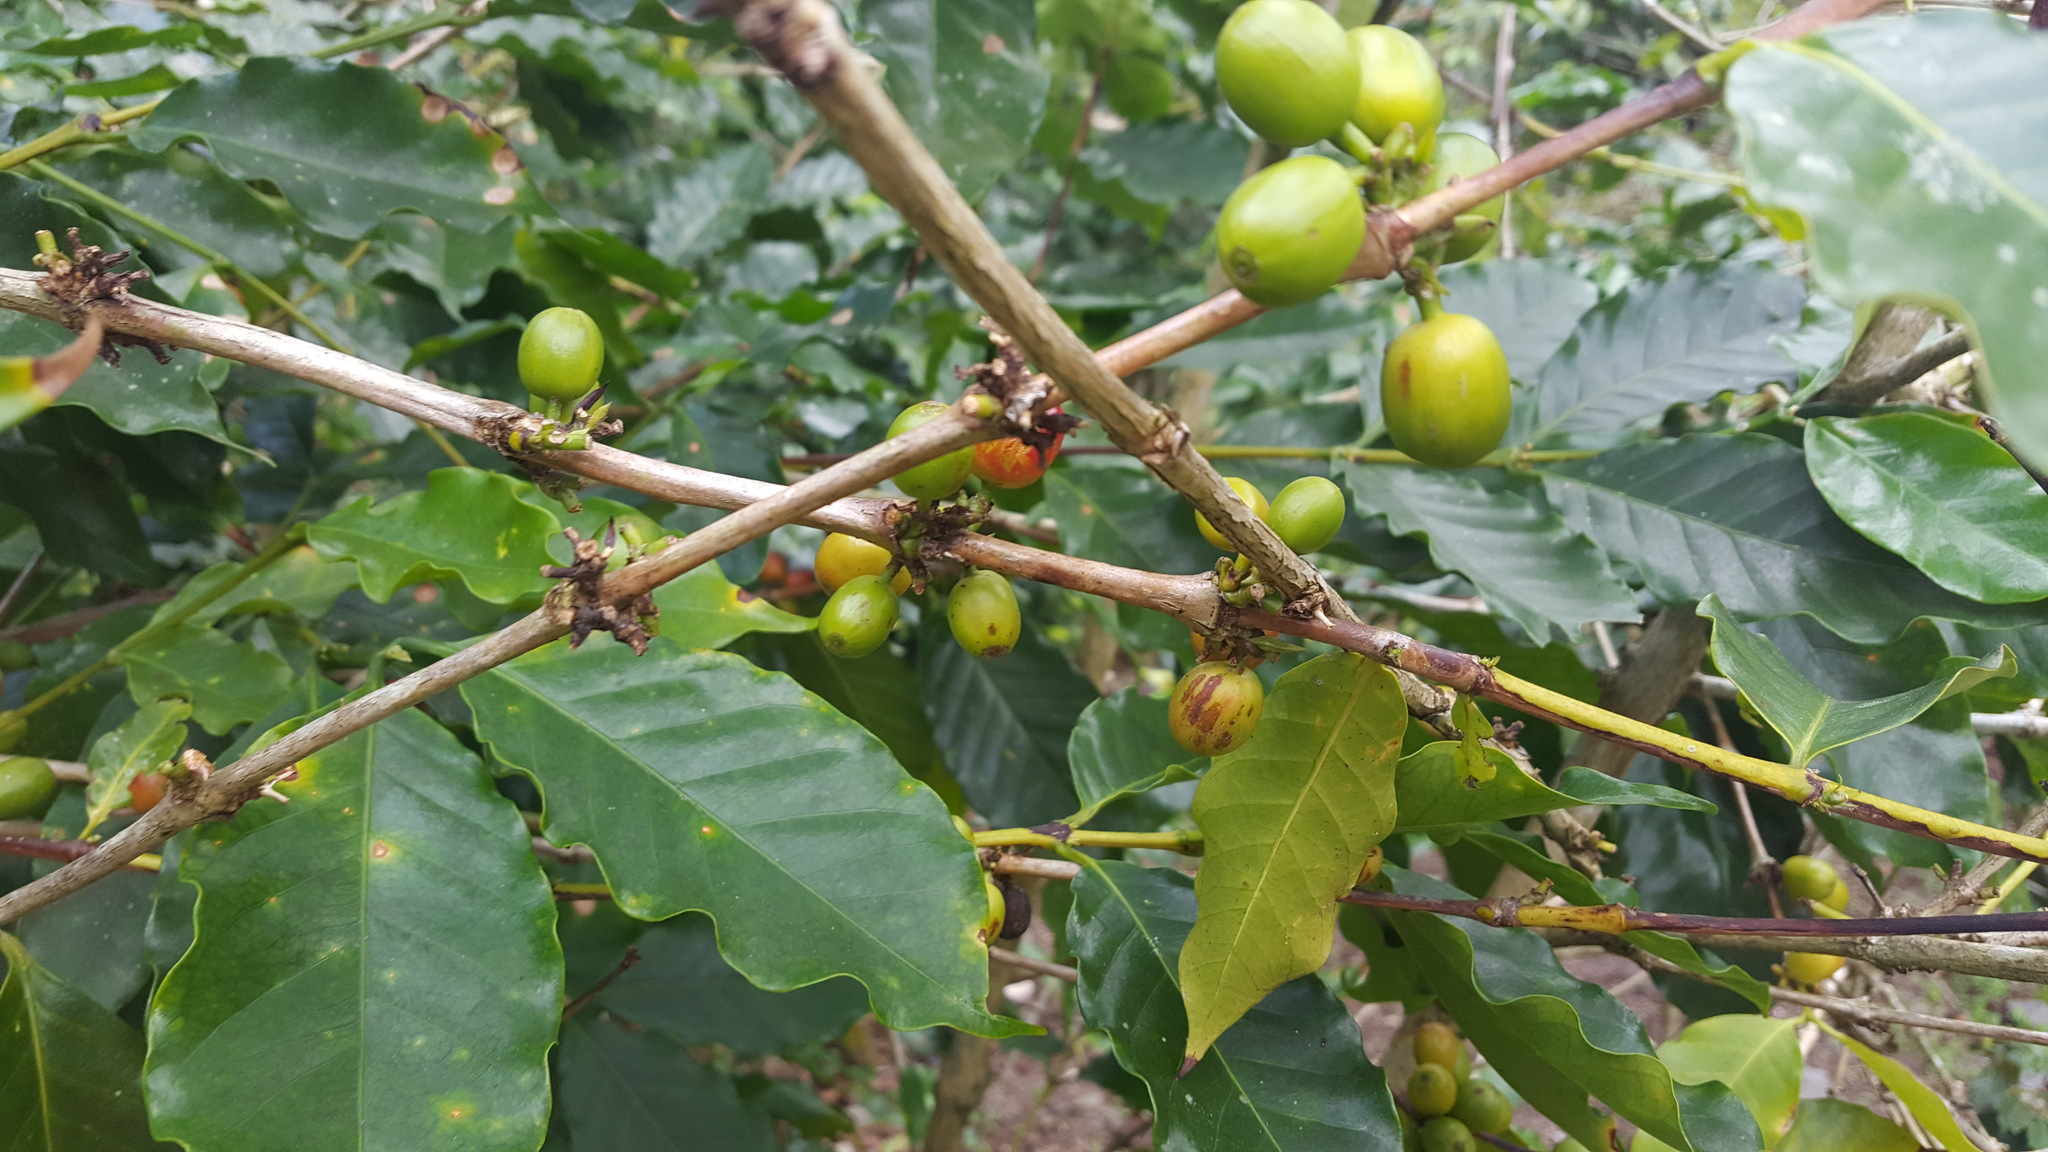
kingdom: Plantae
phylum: Tracheophyta
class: Magnoliopsida
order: Gentianales
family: Rubiaceae
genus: Coffea
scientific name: Coffea arabica
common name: Coffee
